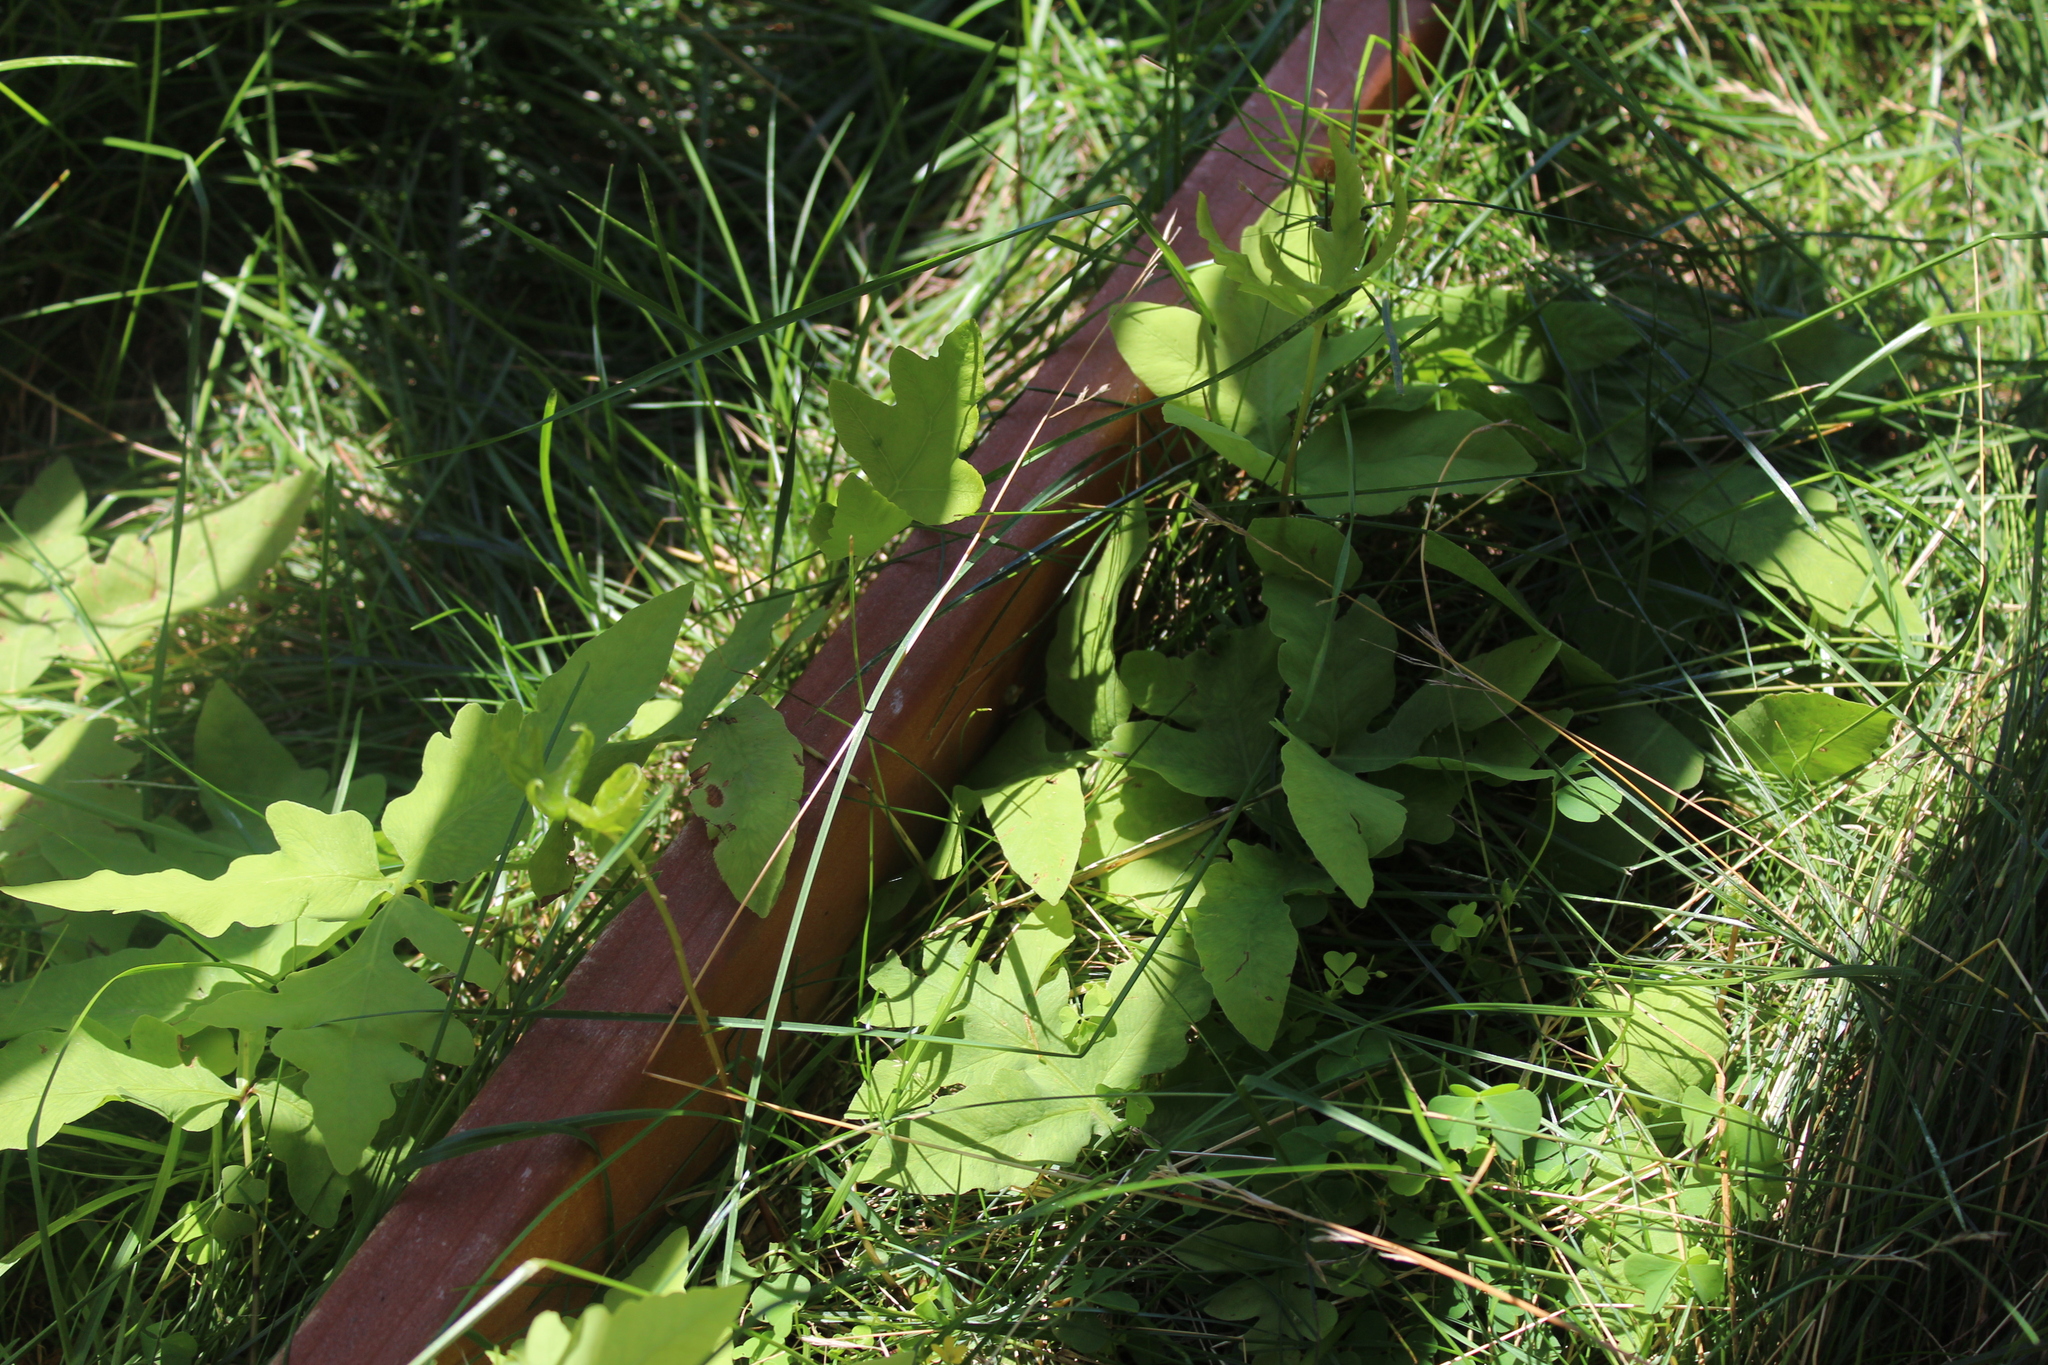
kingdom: Plantae
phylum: Tracheophyta
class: Polypodiopsida
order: Polypodiales
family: Onocleaceae
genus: Onoclea
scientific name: Onoclea sensibilis
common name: Sensitive fern
